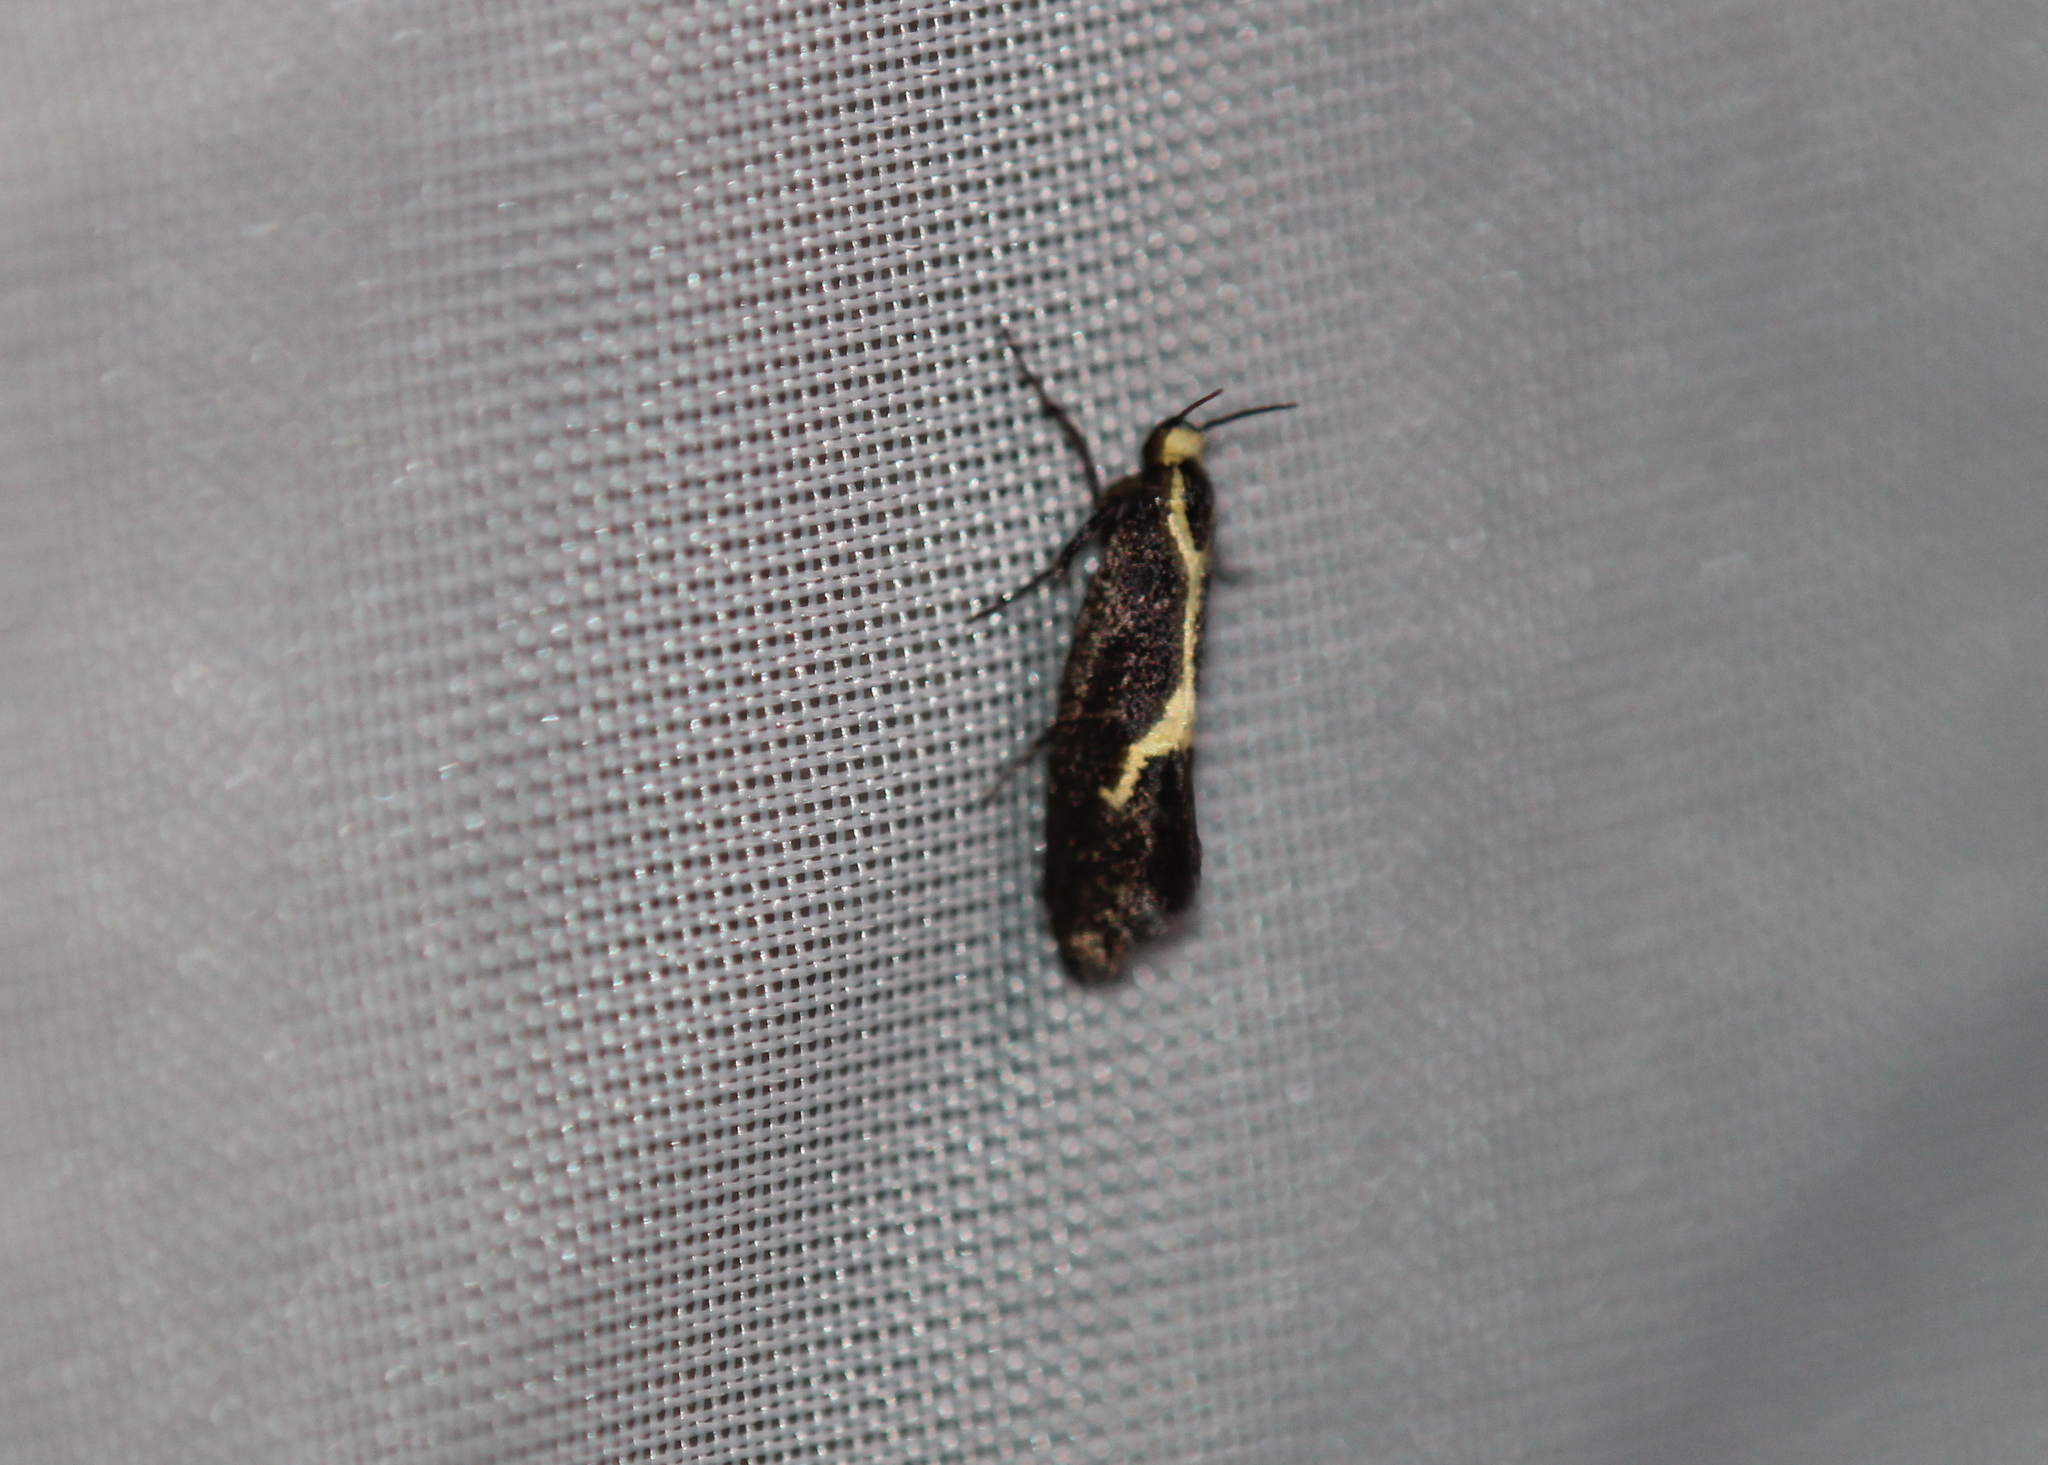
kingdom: Animalia
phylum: Arthropoda
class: Insecta
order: Lepidoptera
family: Oecophoridae
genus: Polix
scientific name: Polix coloradella
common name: Skunk moth
